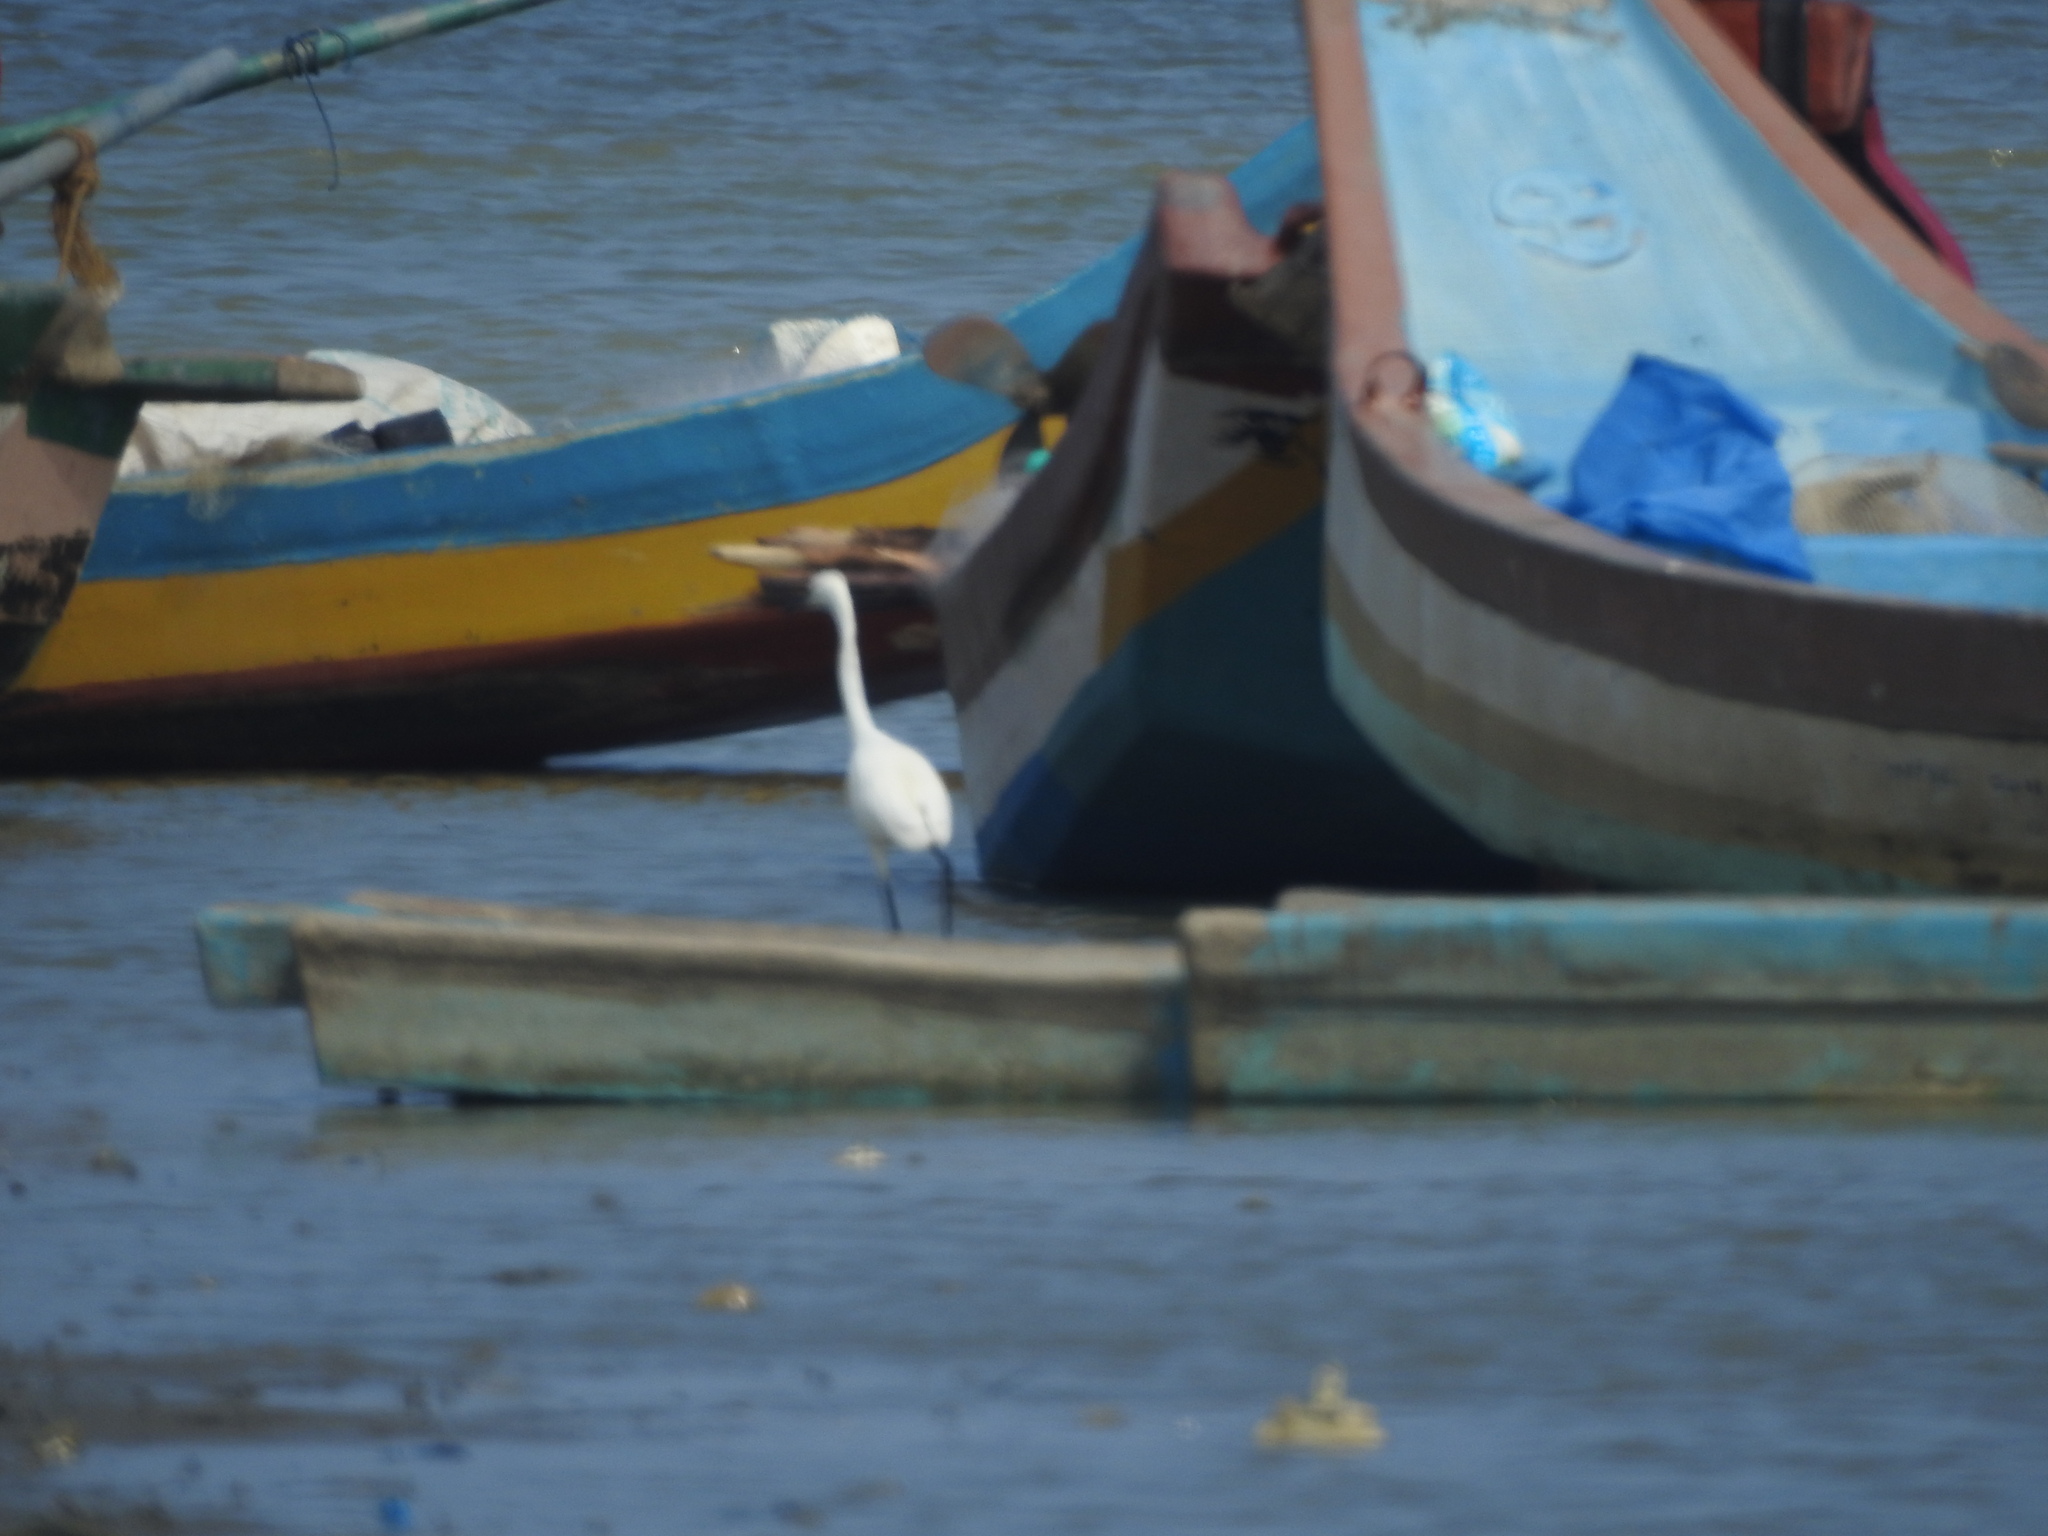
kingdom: Animalia
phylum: Chordata
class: Aves
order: Pelecaniformes
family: Ardeidae
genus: Egretta
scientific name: Egretta garzetta
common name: Little egret
